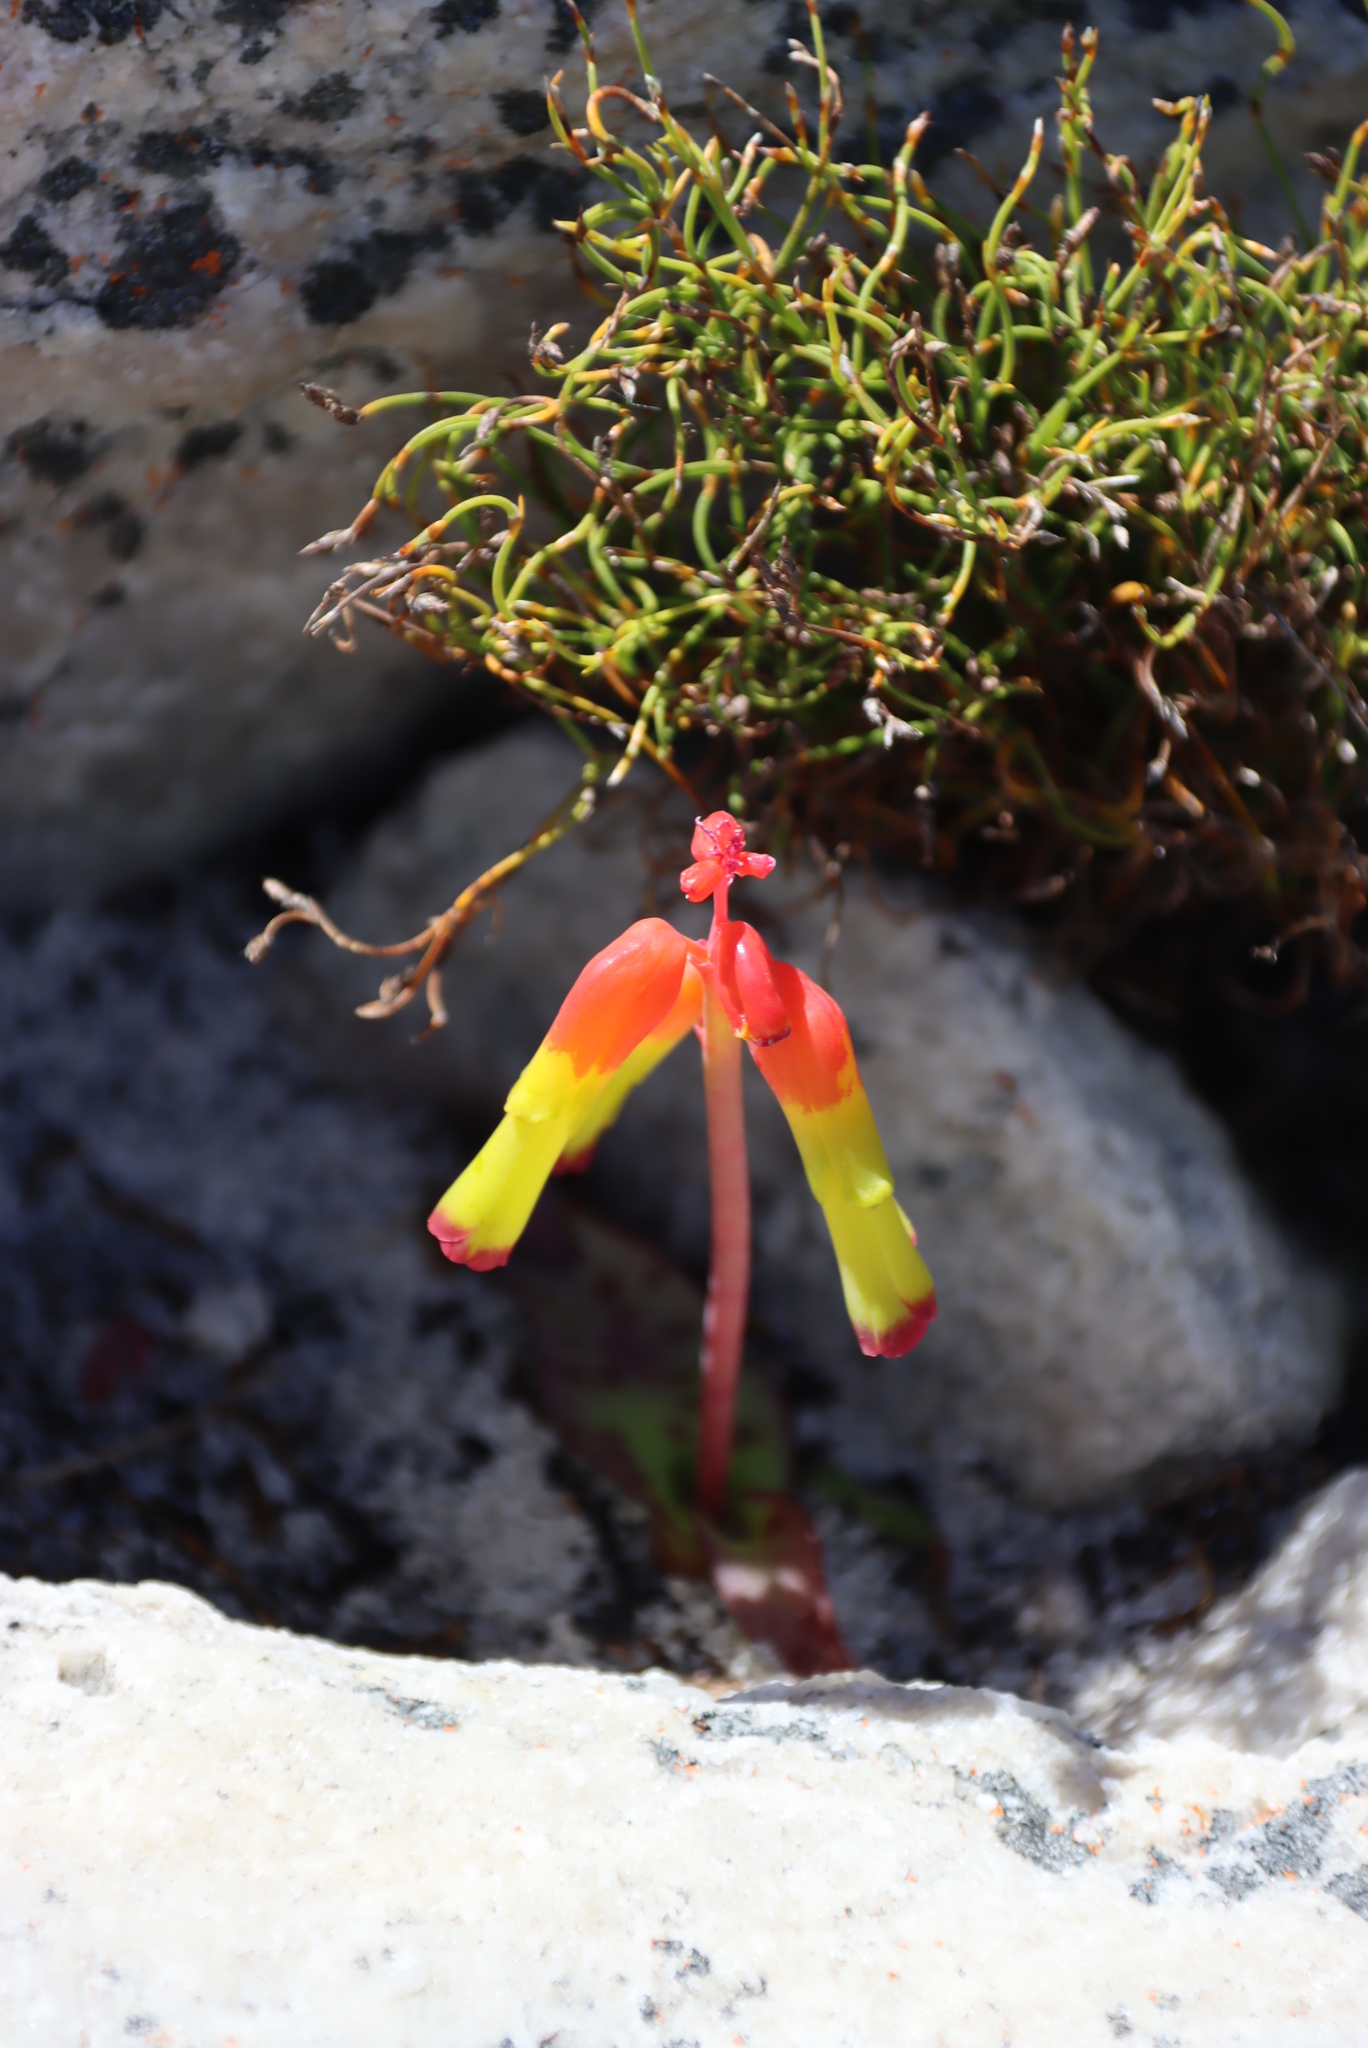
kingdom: Plantae
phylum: Tracheophyta
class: Liliopsida
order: Asparagales
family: Asparagaceae
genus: Lachenalia
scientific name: Lachenalia luteola
